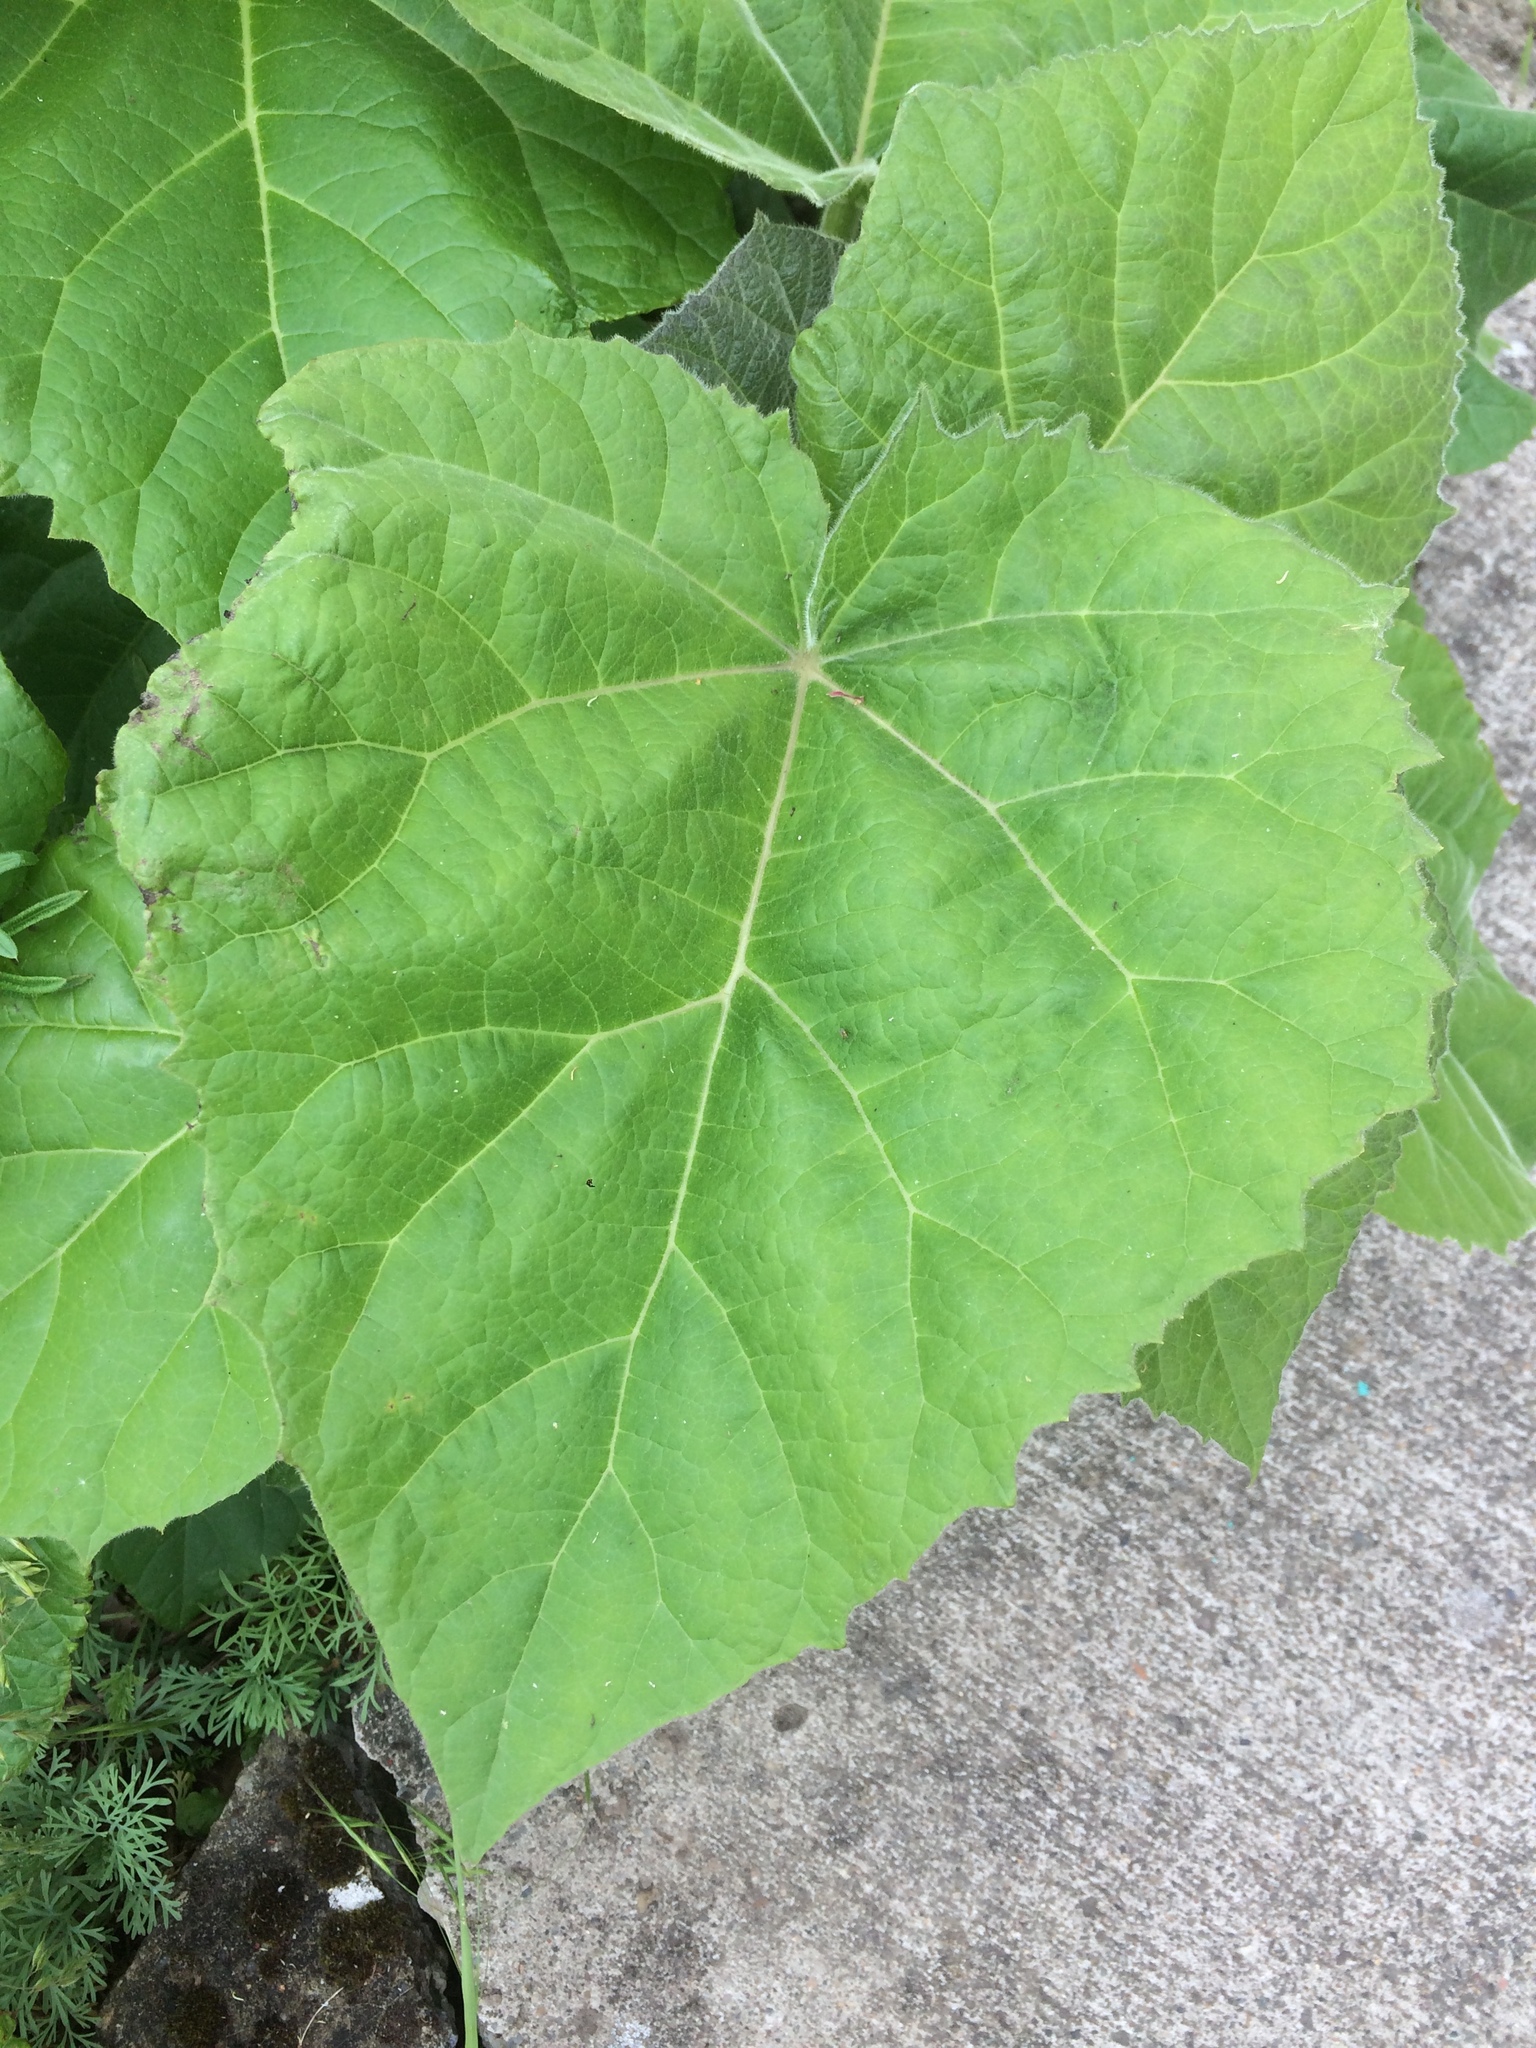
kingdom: Plantae
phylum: Tracheophyta
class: Magnoliopsida
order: Lamiales
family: Paulowniaceae
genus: Paulownia
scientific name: Paulownia tomentosa
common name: Foxglove-tree
